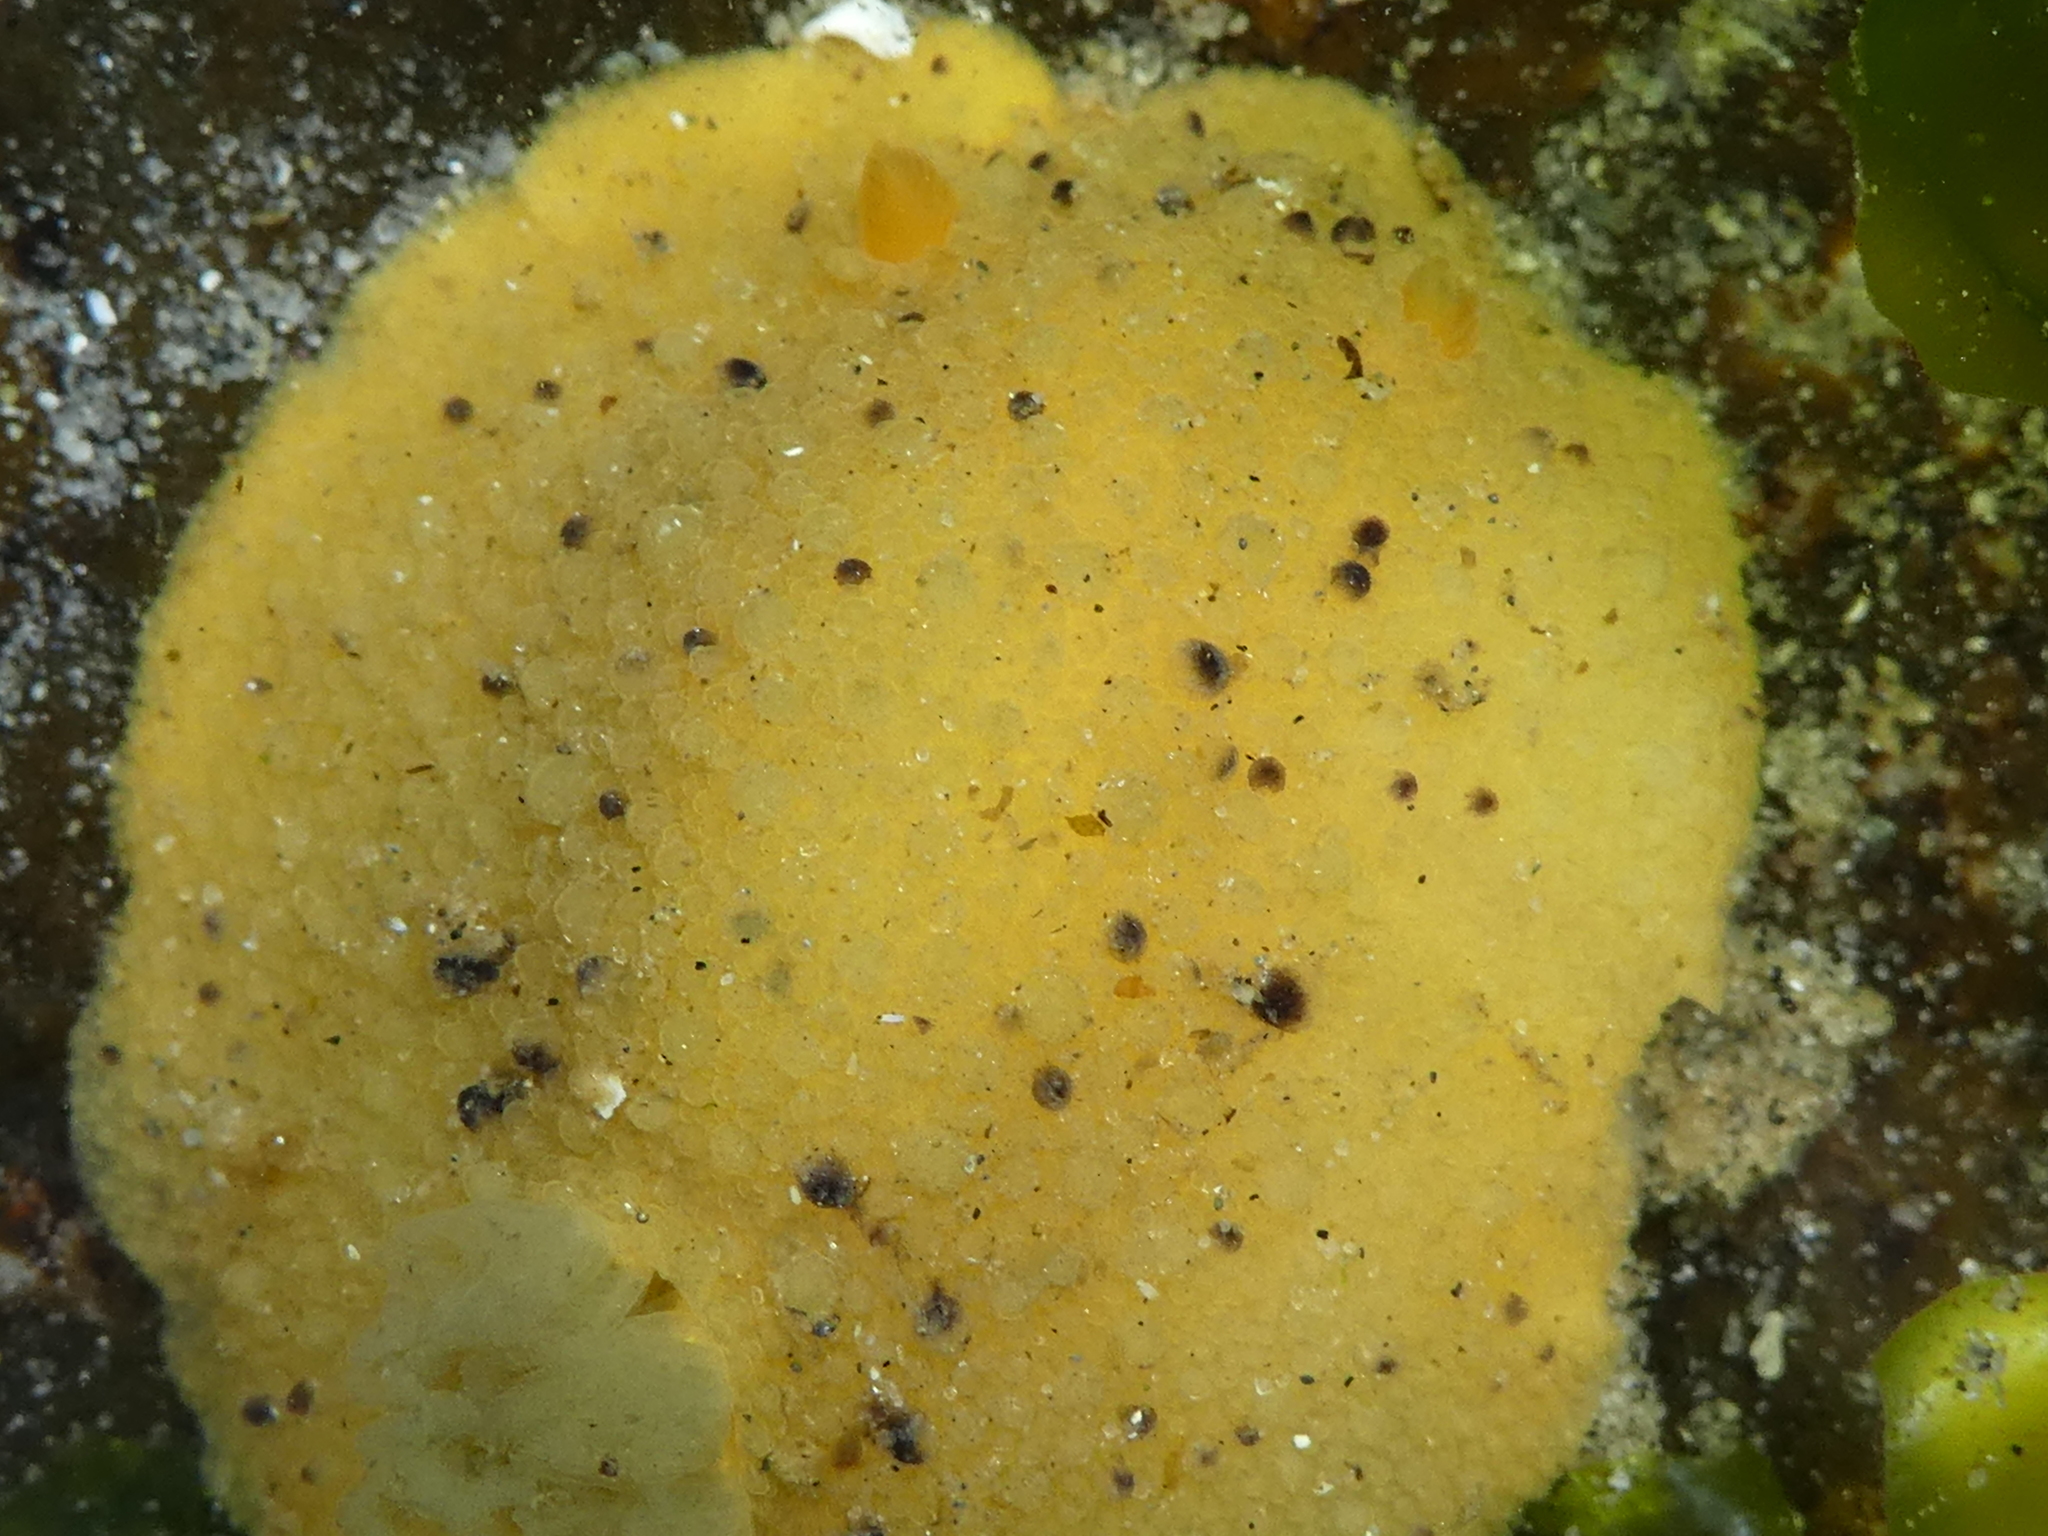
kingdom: Animalia
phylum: Mollusca
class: Gastropoda
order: Nudibranchia
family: Dorididae
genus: Doris
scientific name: Doris montereyensis
